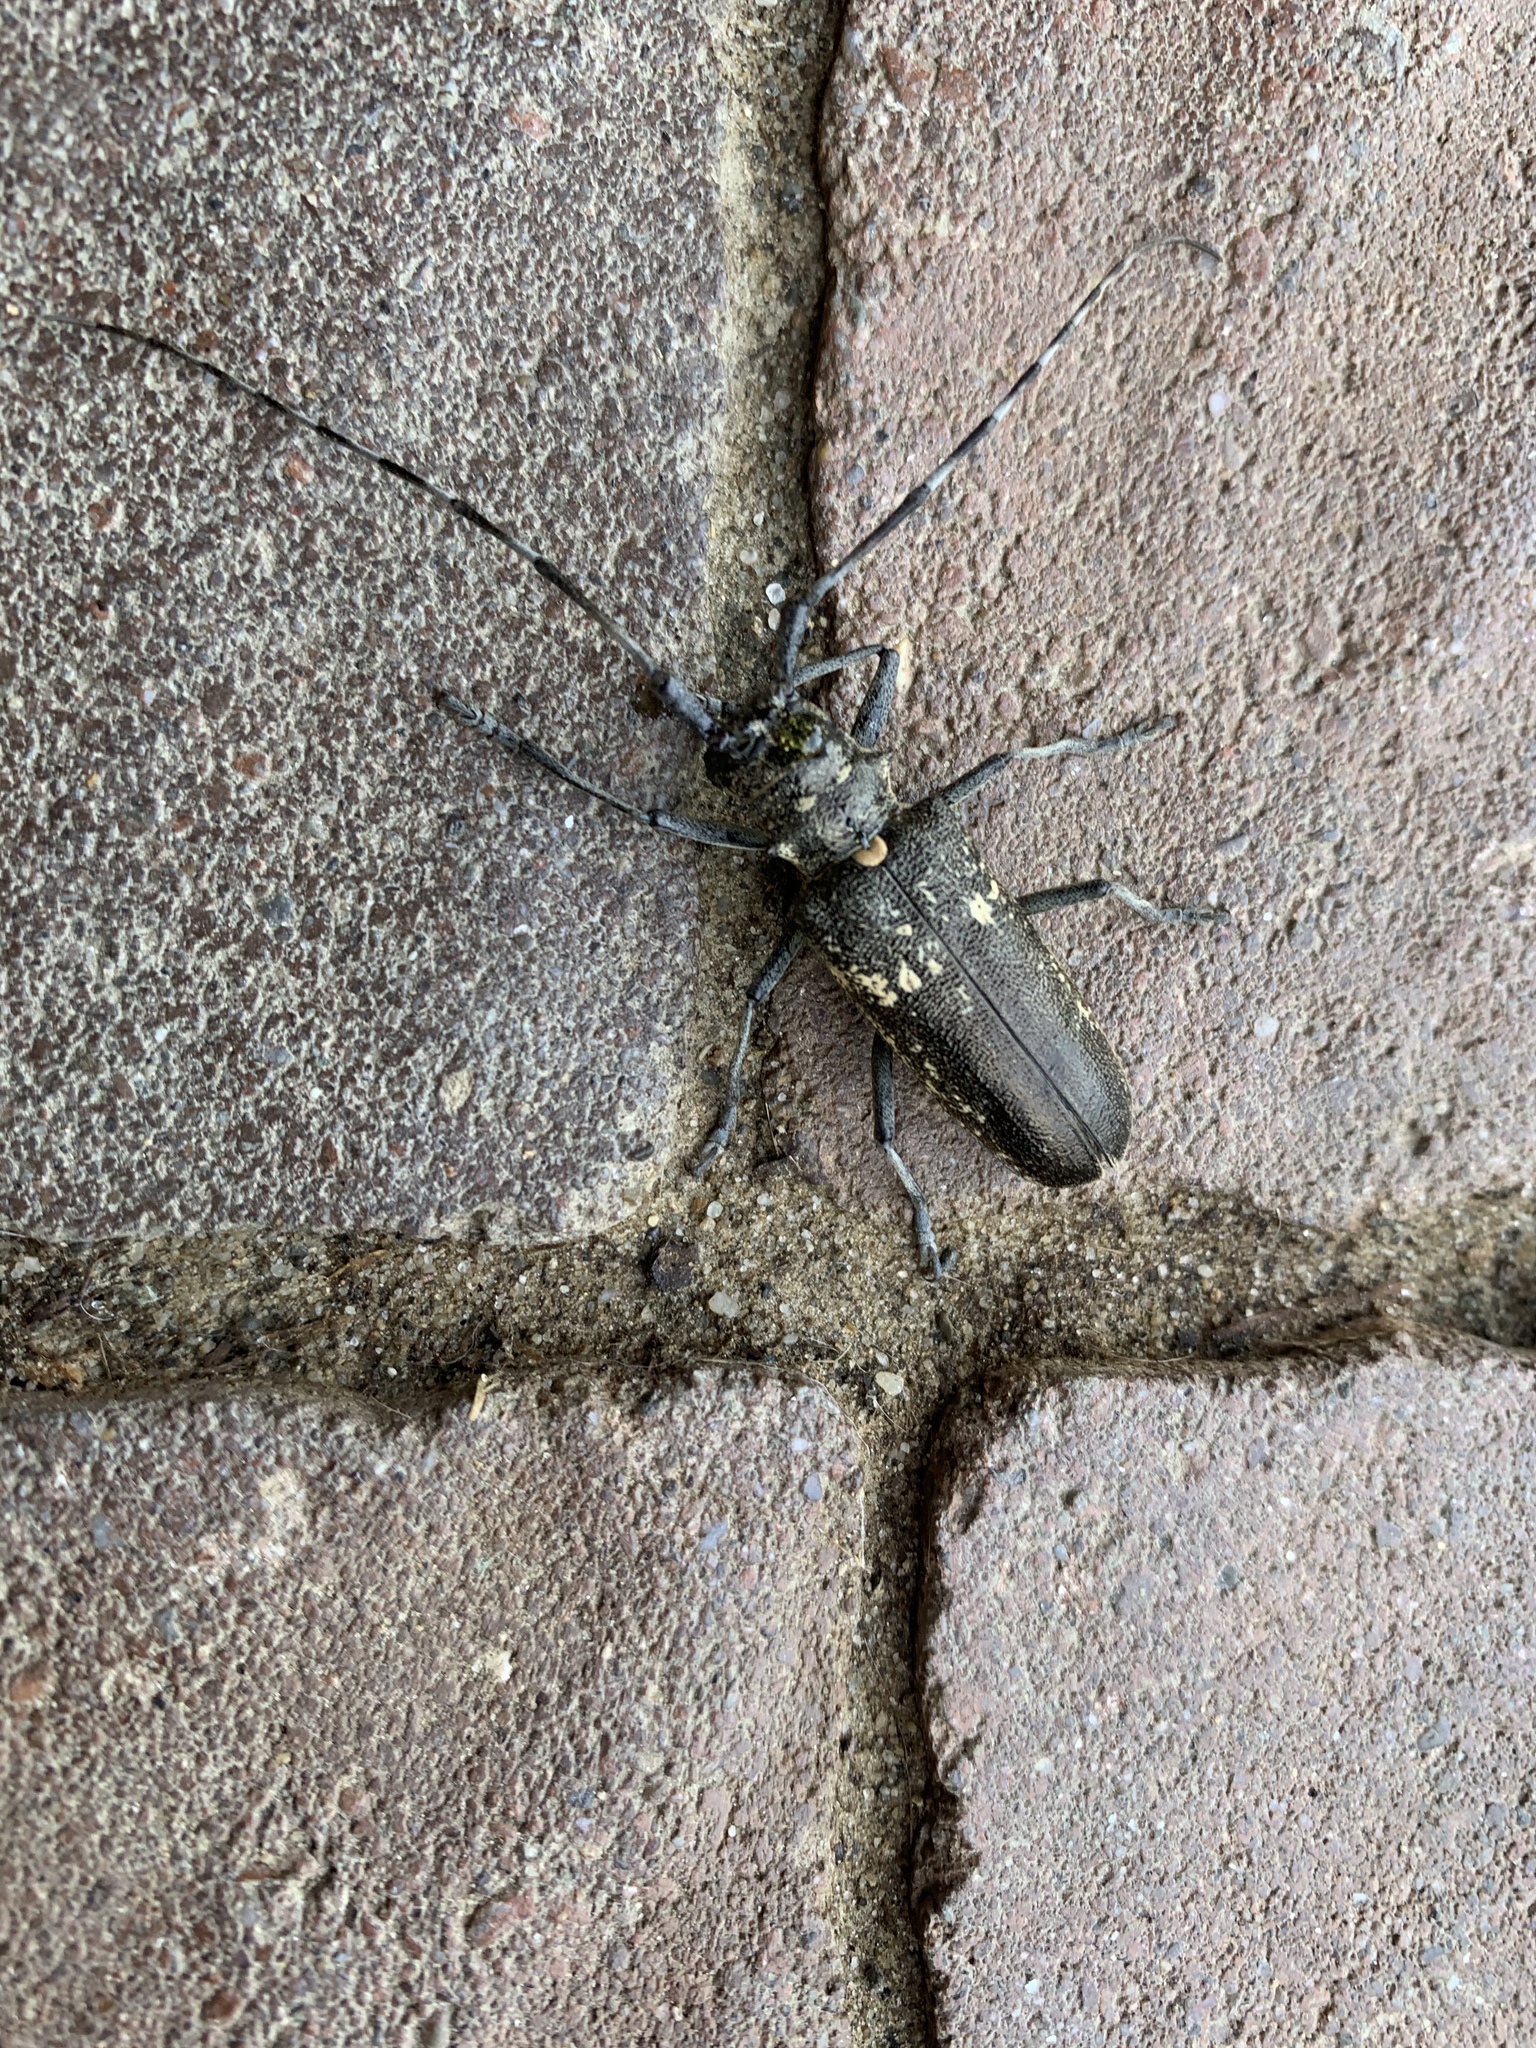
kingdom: Animalia
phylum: Arthropoda
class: Insecta
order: Coleoptera
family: Cerambycidae
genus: Monochamus
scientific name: Monochamus sartor
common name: Pine sawyer
